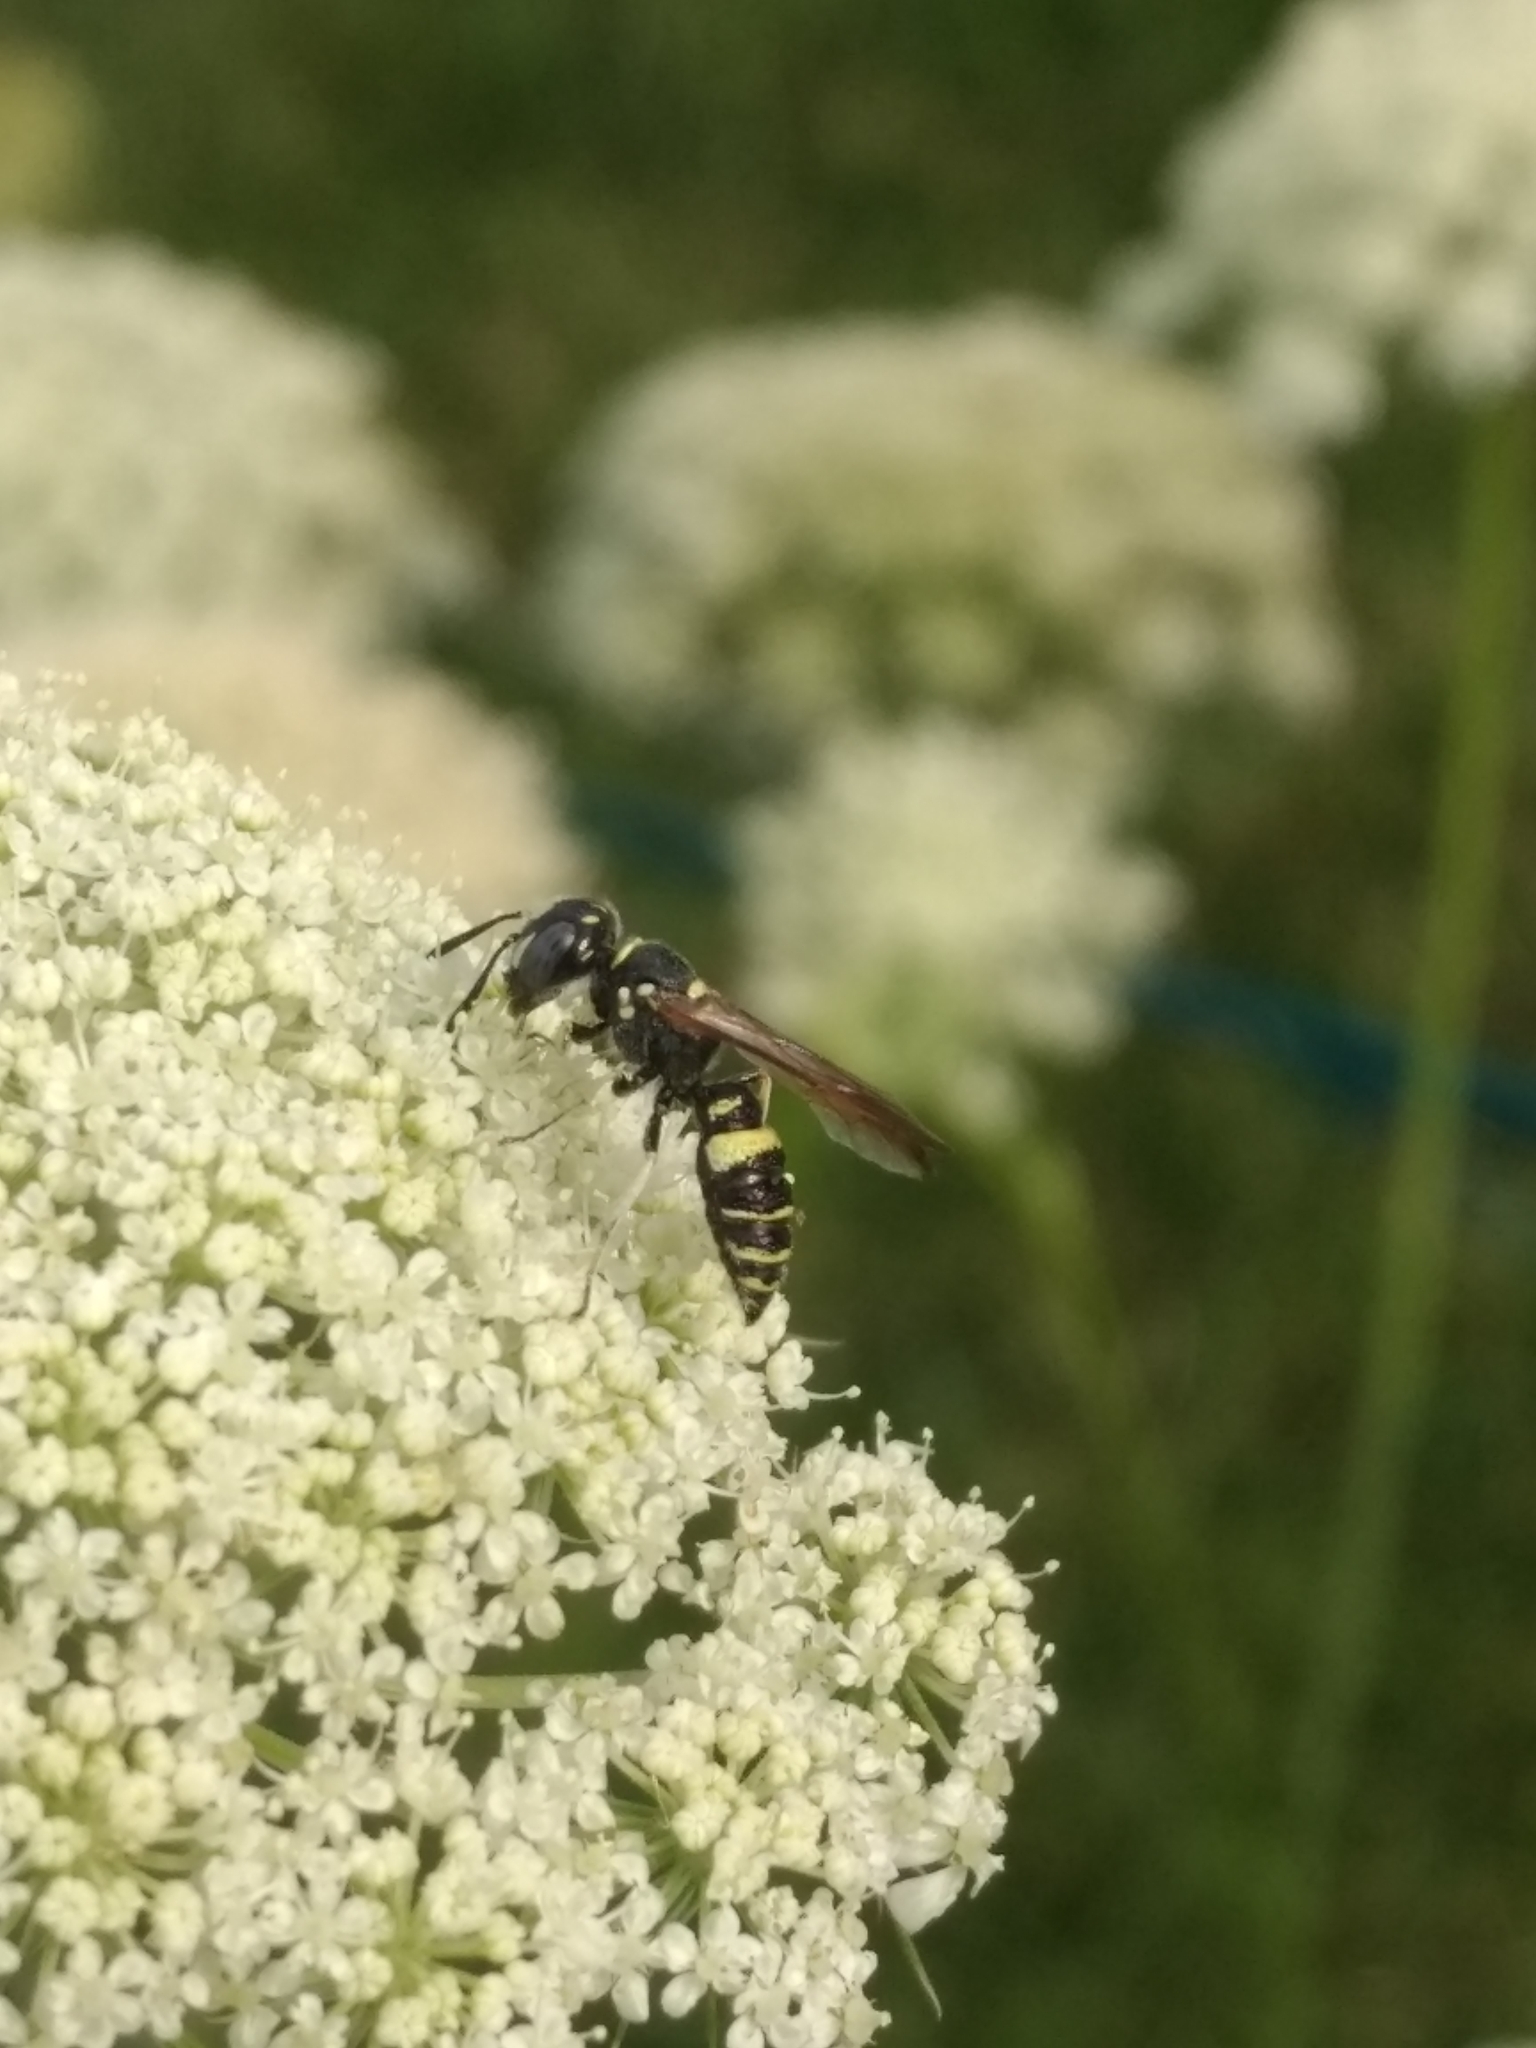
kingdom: Animalia
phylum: Arthropoda
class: Insecta
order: Hymenoptera
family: Crabronidae
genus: Philanthus
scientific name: Philanthus gibbosus
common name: Humped beewolf
